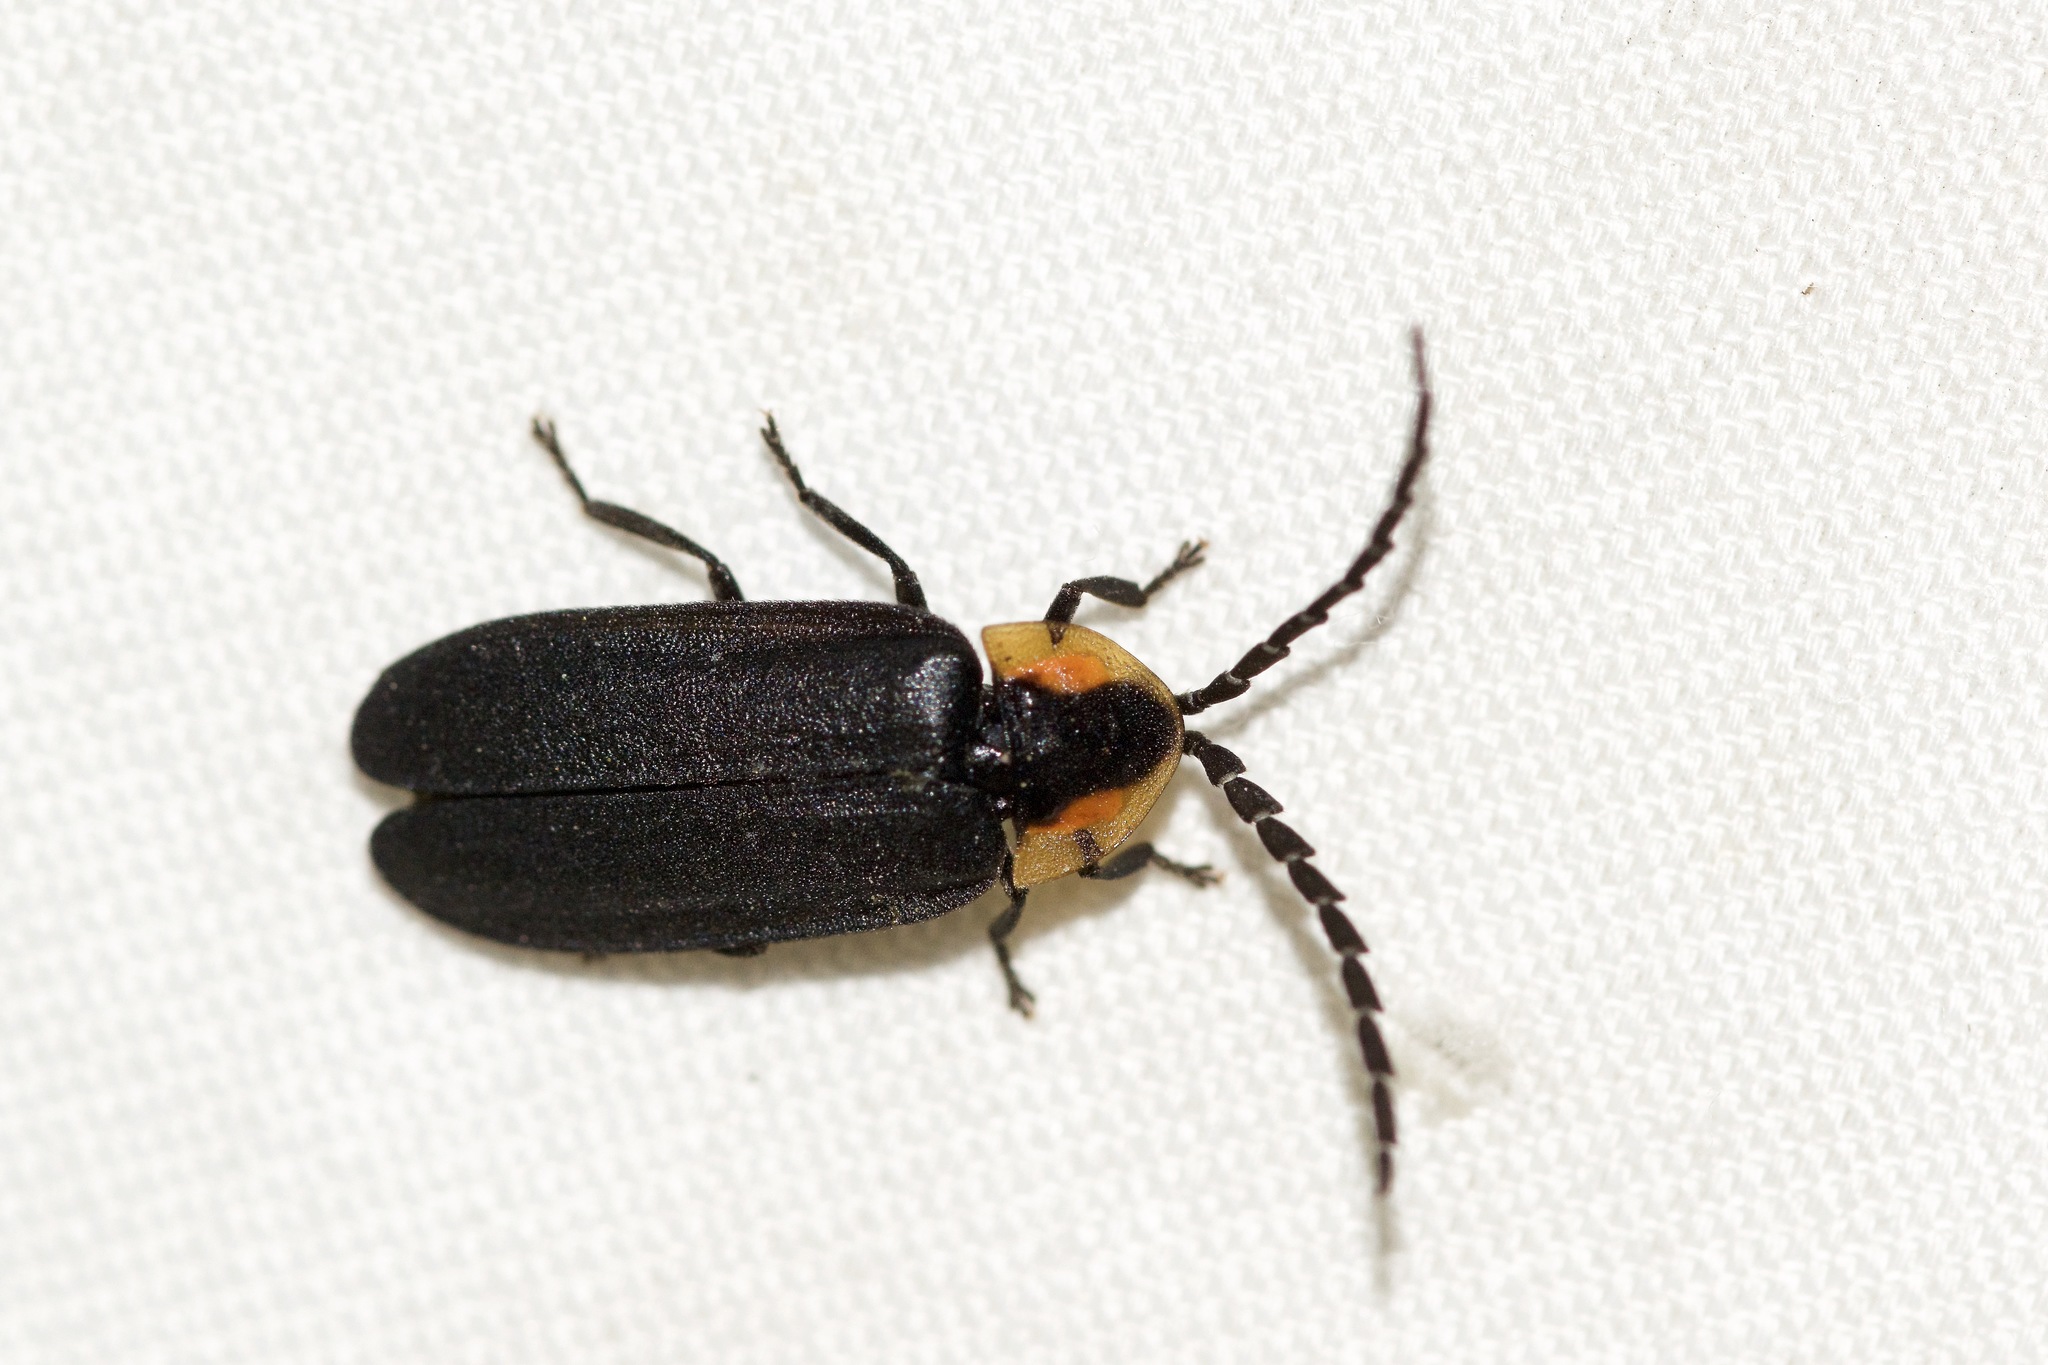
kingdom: Animalia
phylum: Arthropoda
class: Insecta
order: Coleoptera
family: Lampyridae
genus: Lucidota
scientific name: Lucidota atra
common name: Black firefly
